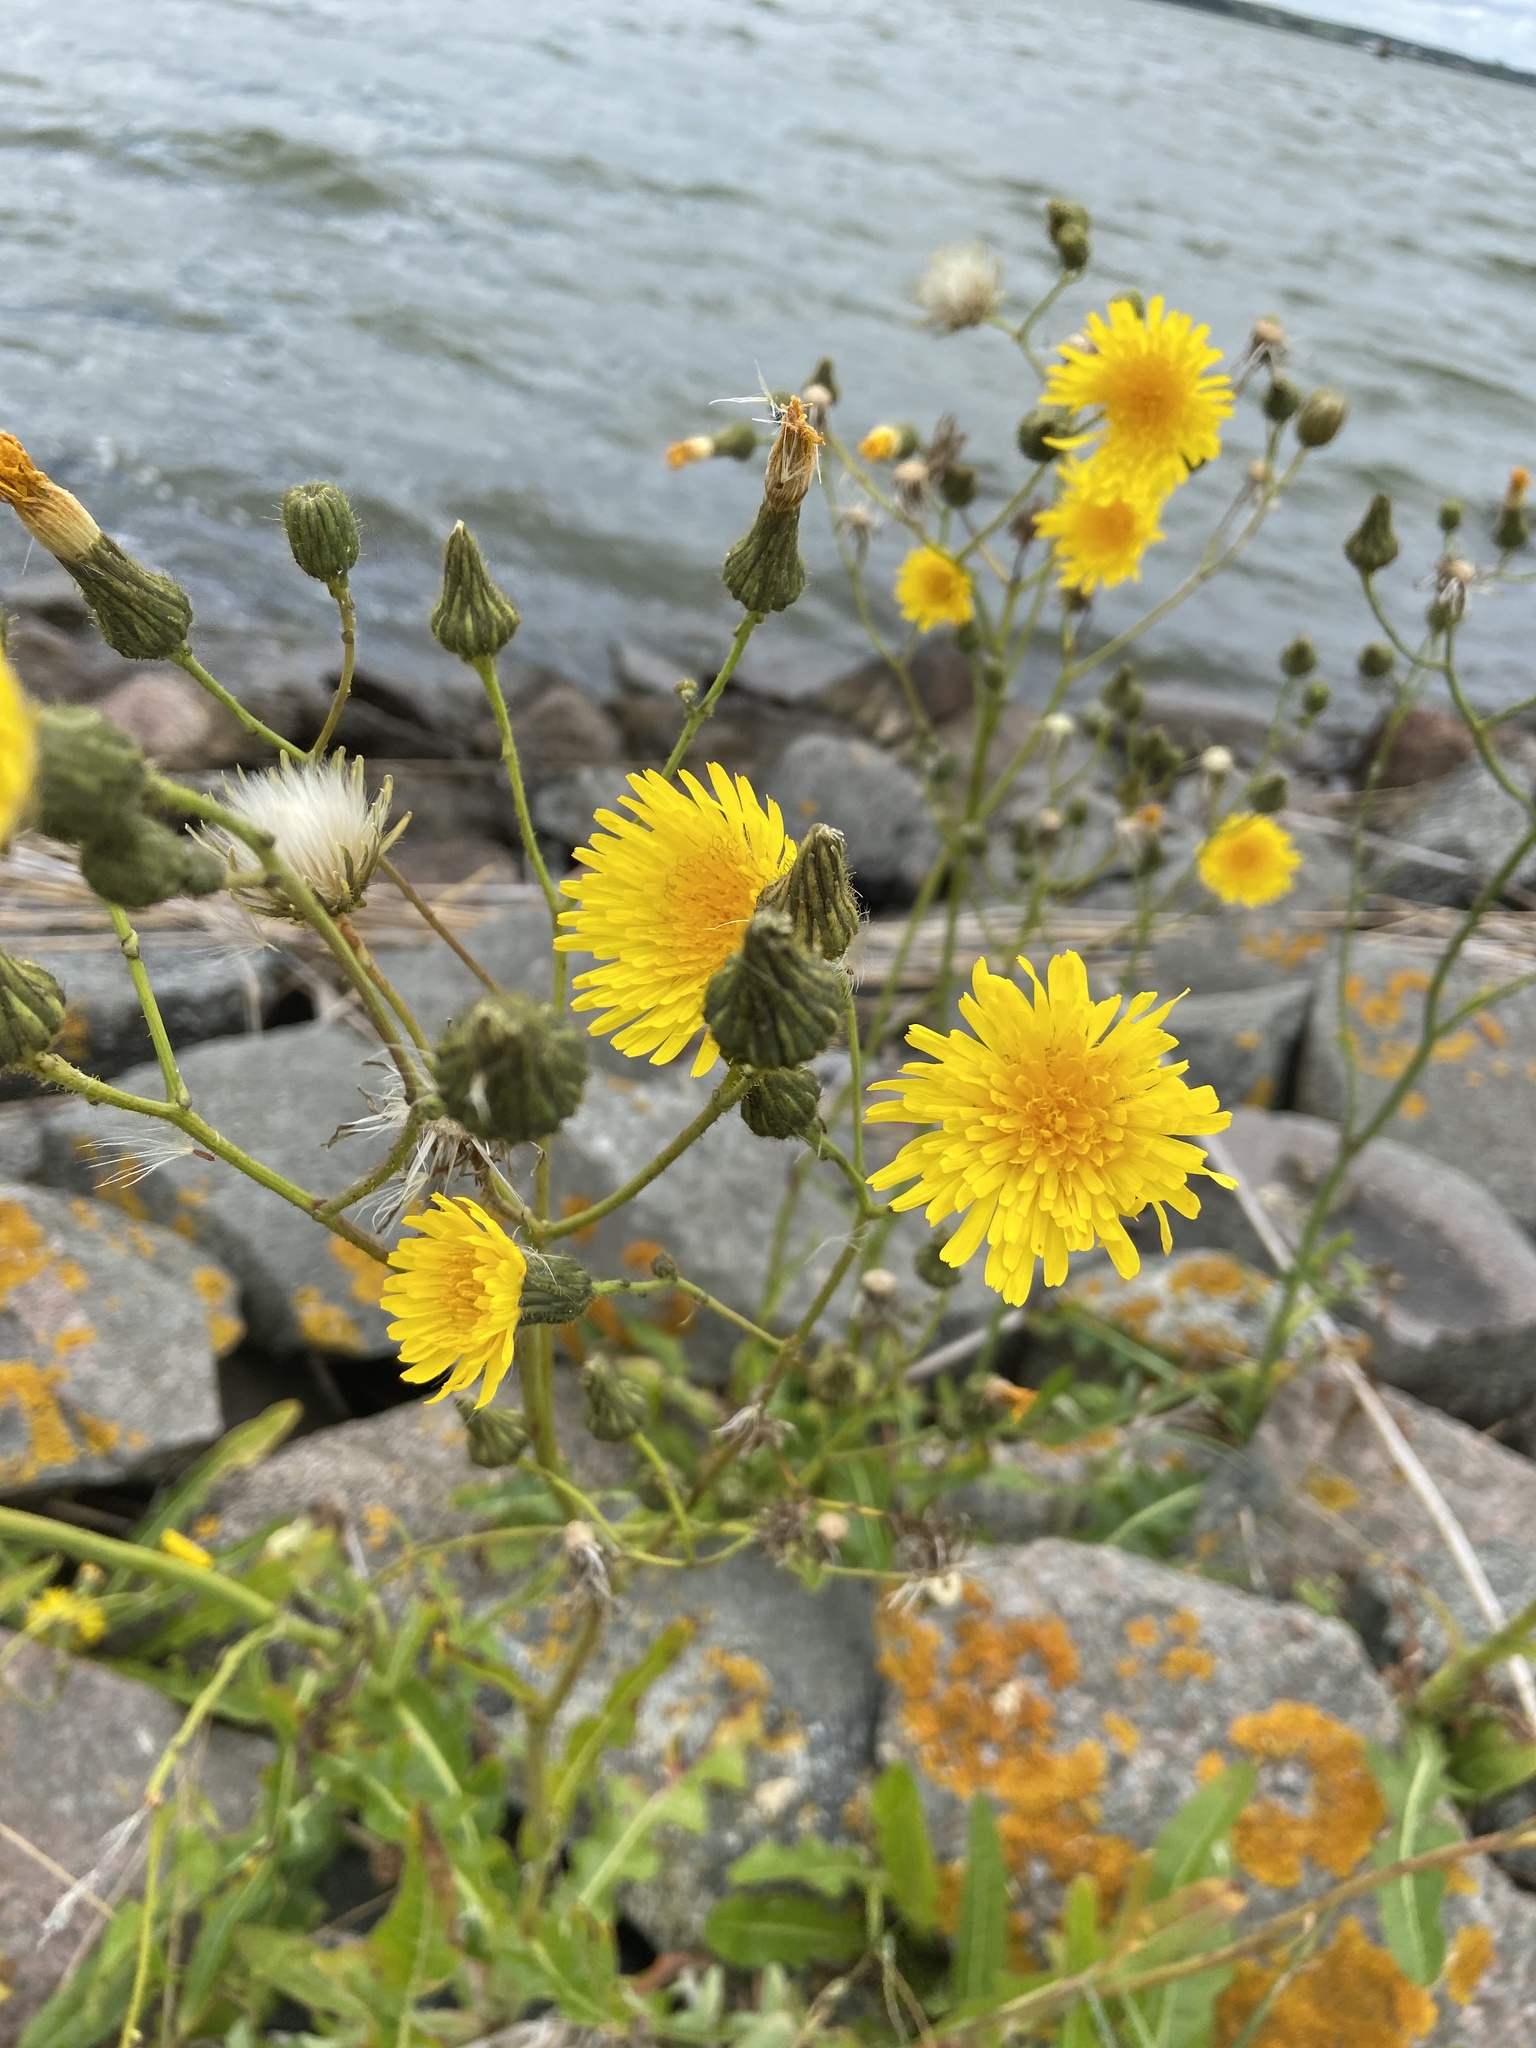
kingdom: Plantae
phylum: Tracheophyta
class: Magnoliopsida
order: Asterales
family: Asteraceae
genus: Sonchus
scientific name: Sonchus arvensis
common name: Perennial sow-thistle
